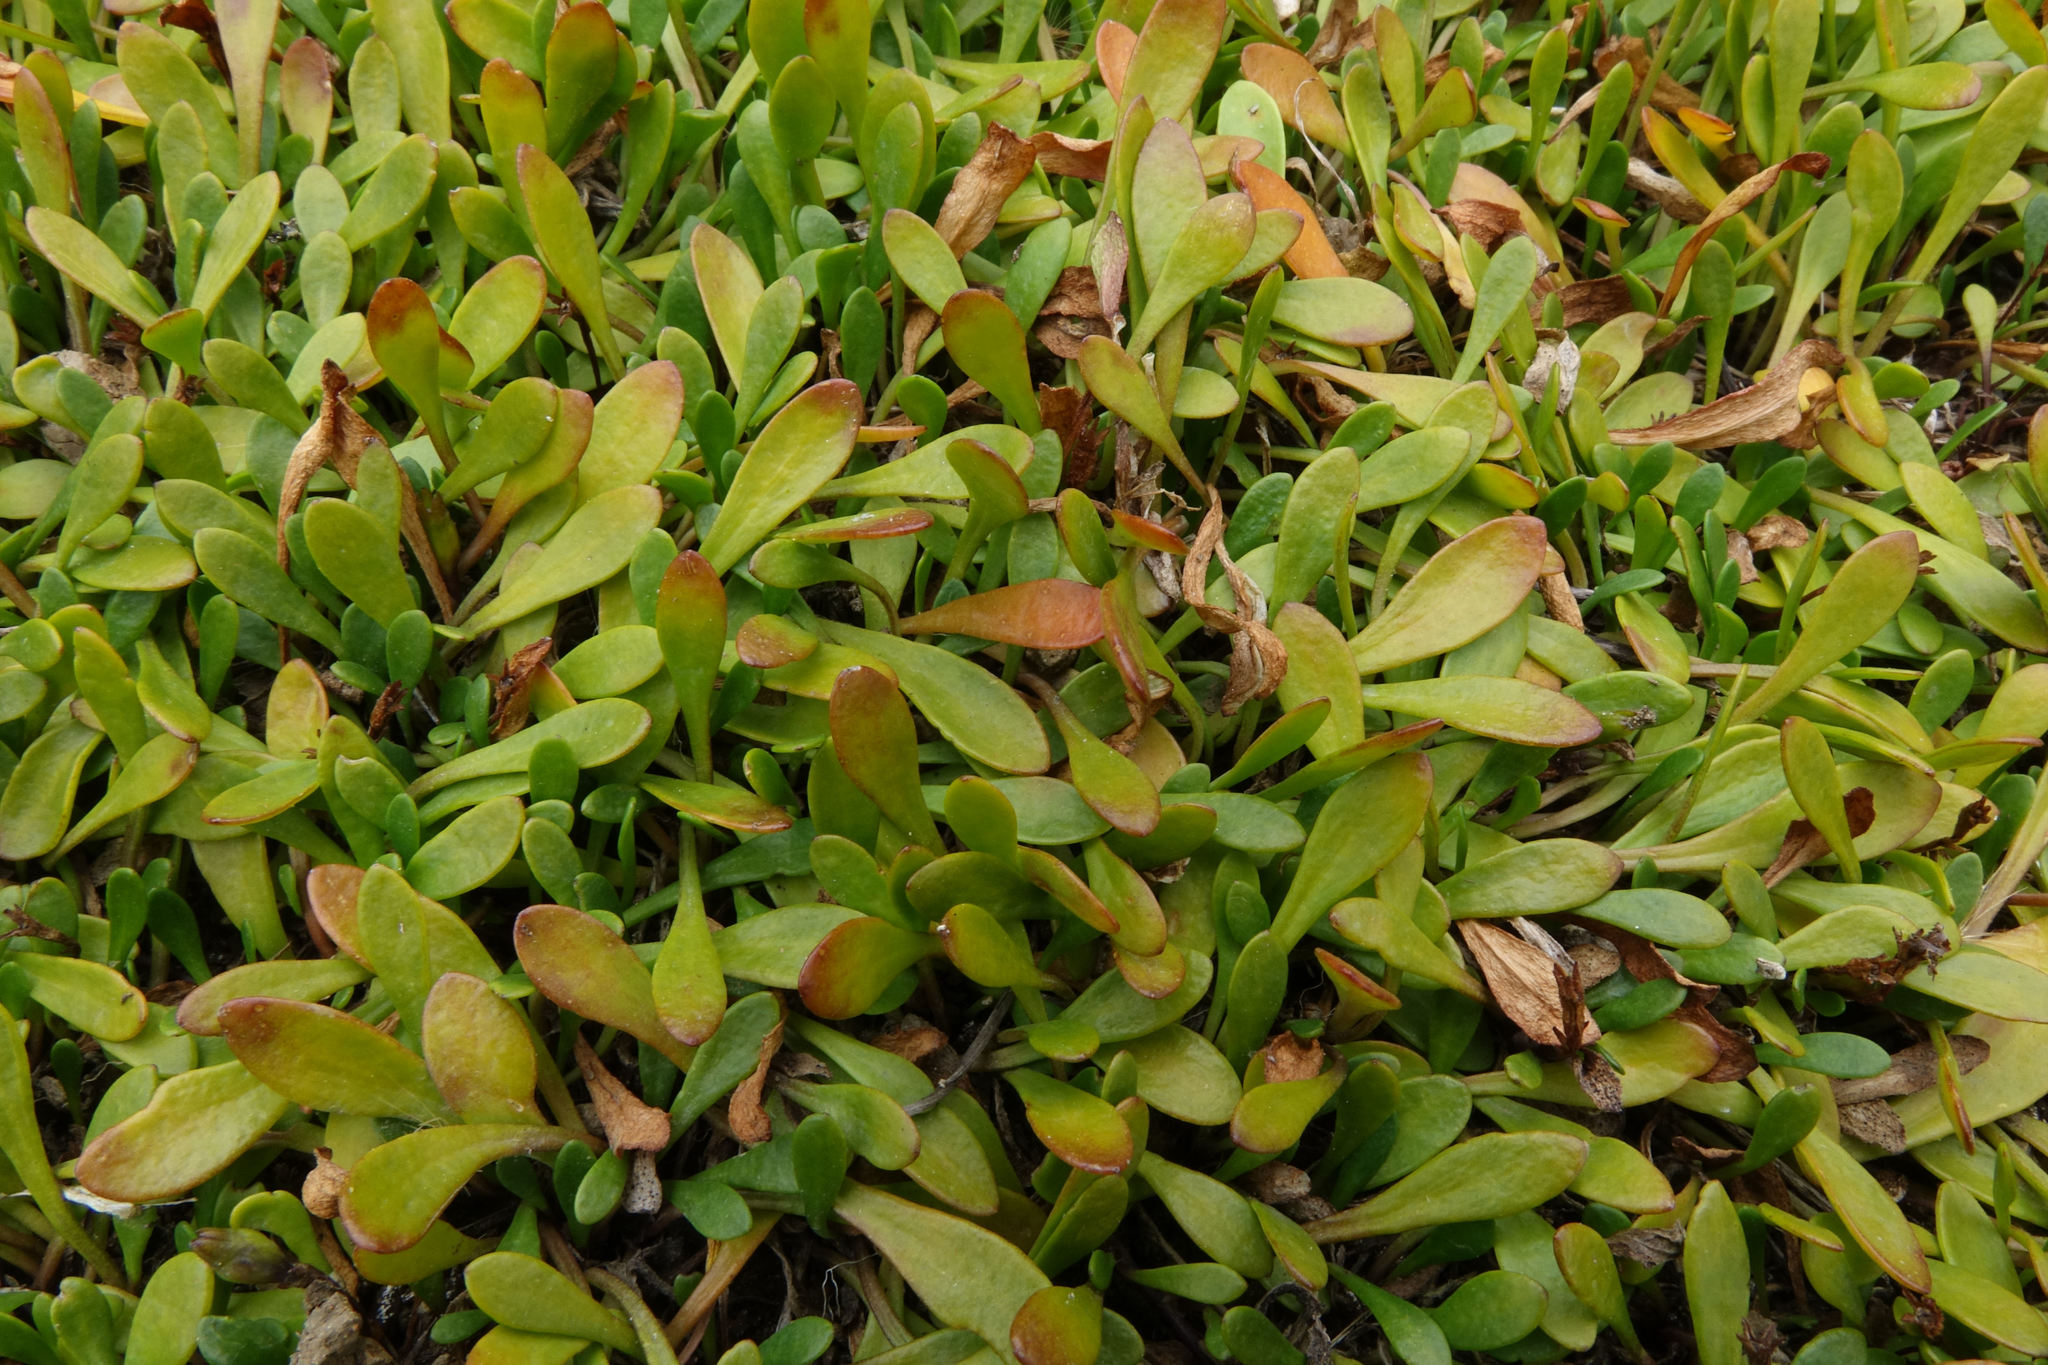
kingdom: Plantae
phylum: Tracheophyta
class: Magnoliopsida
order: Asterales
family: Goodeniaceae
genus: Goodenia
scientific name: Goodenia radicans
